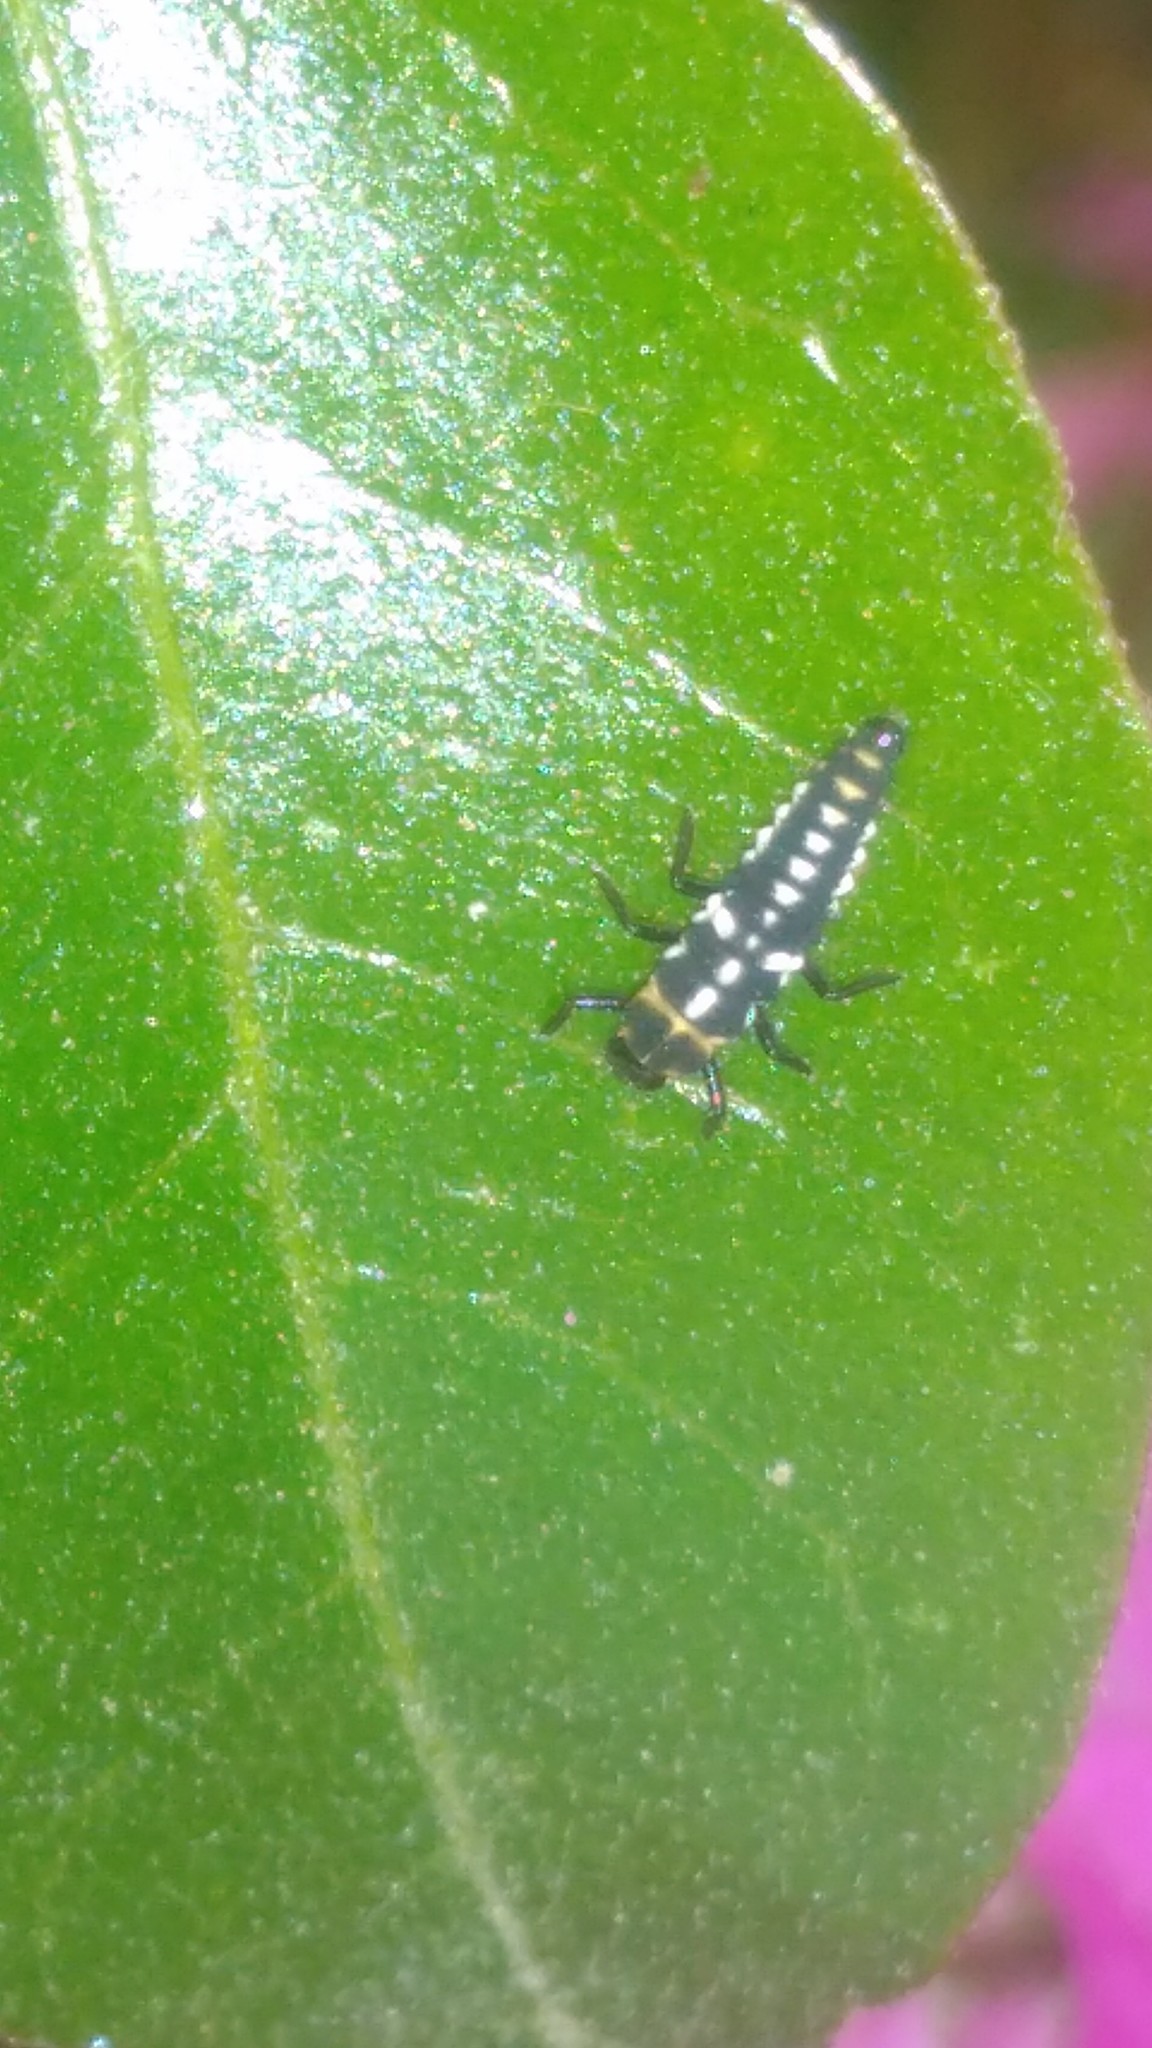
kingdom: Animalia
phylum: Arthropoda
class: Insecta
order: Coleoptera
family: Coccinellidae
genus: Eriopis
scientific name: Eriopis connexa
